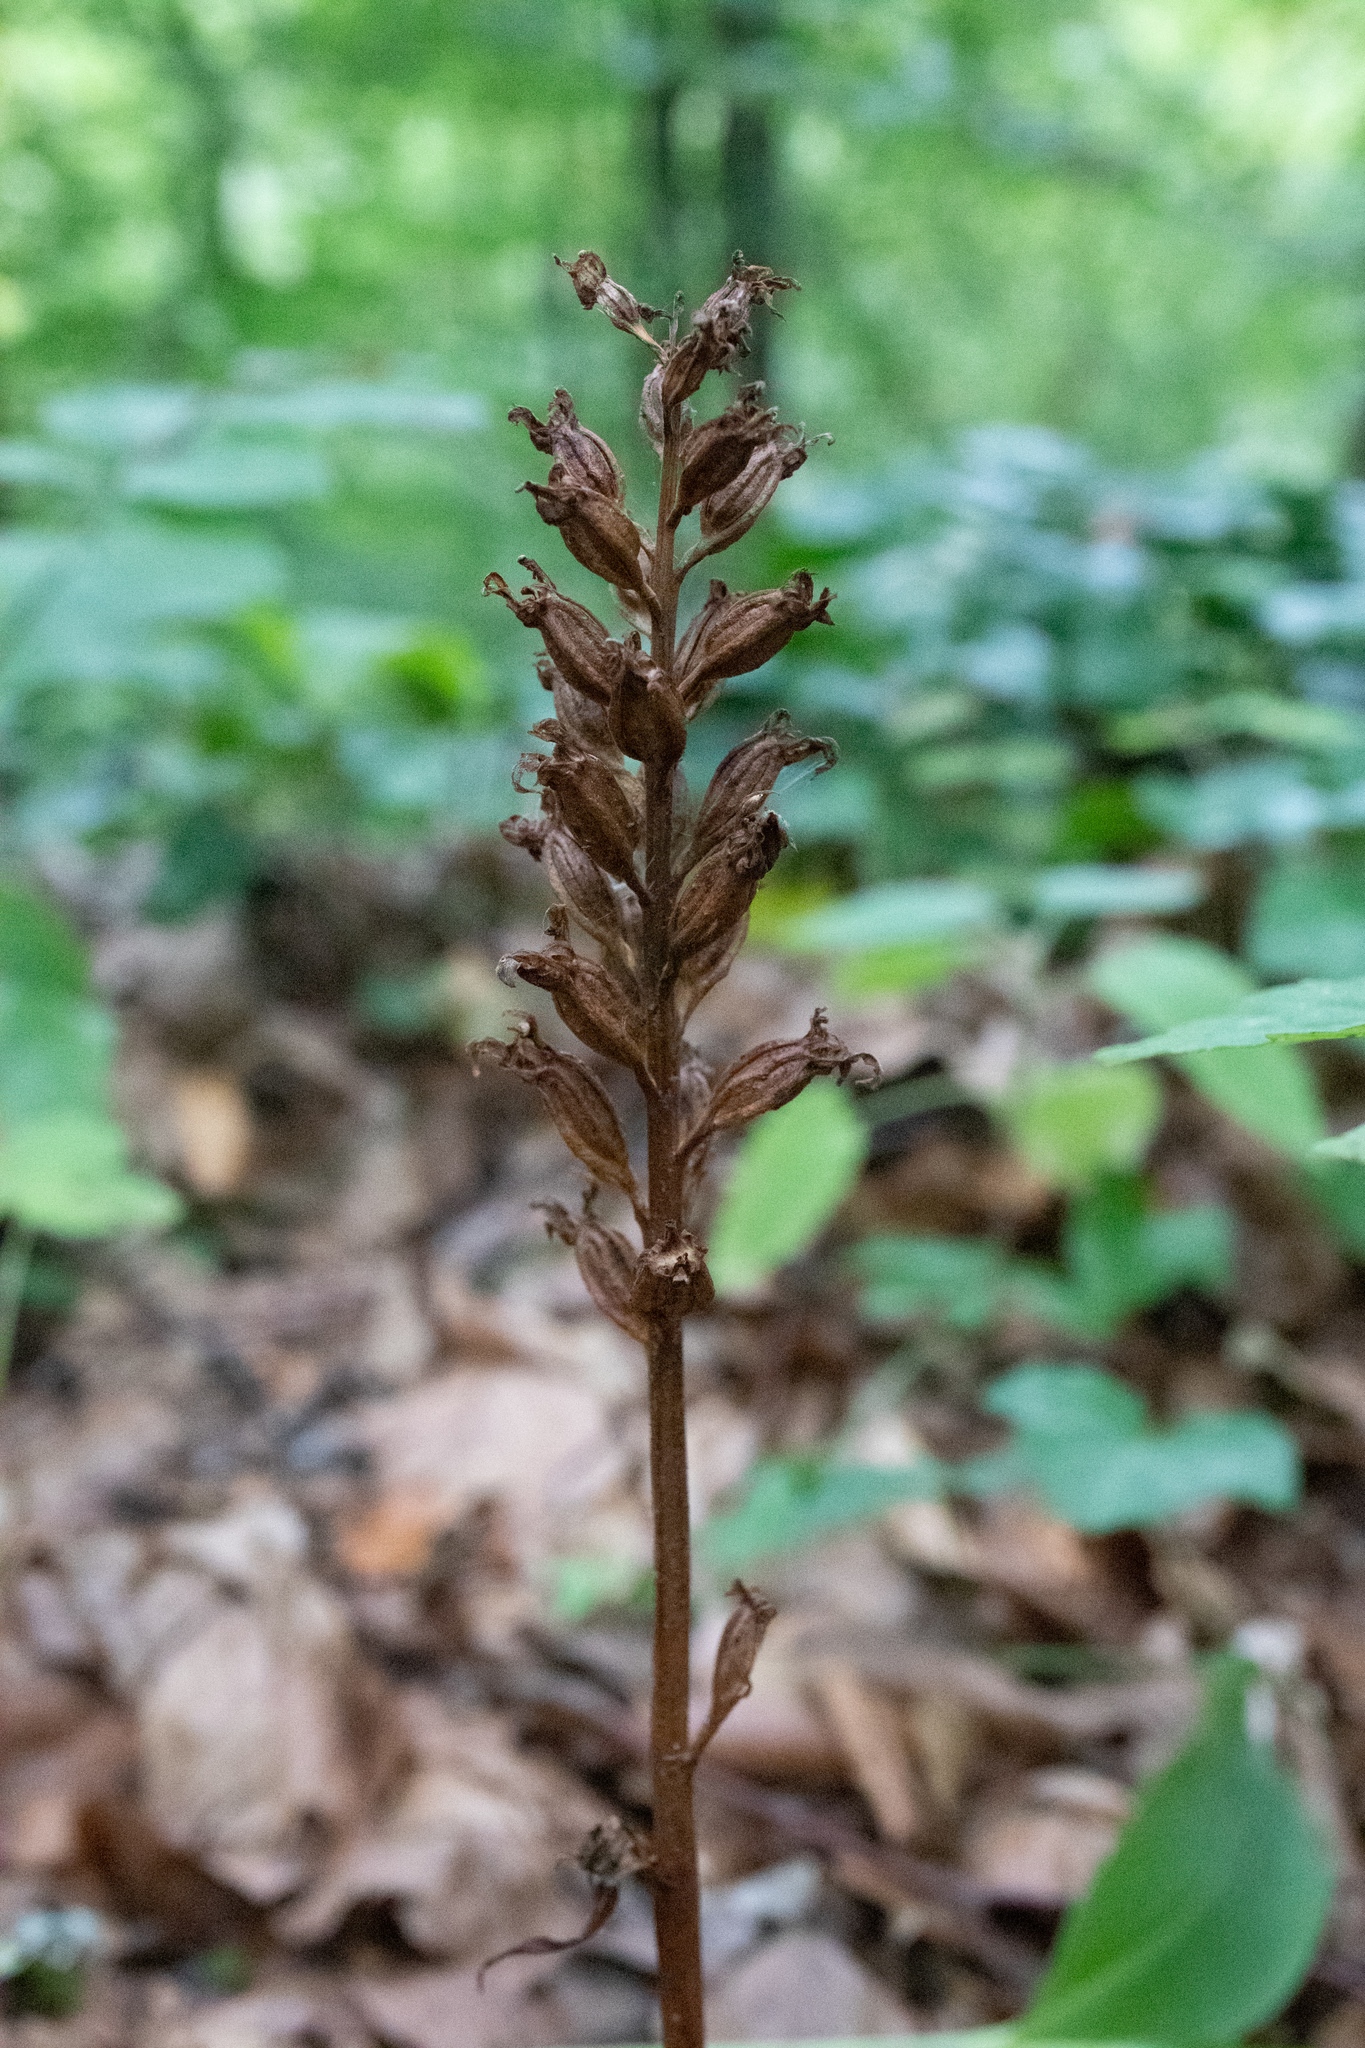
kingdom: Plantae
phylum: Tracheophyta
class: Liliopsida
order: Asparagales
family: Orchidaceae
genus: Neottia
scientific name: Neottia nidus-avis
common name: Bird's-nest orchid
